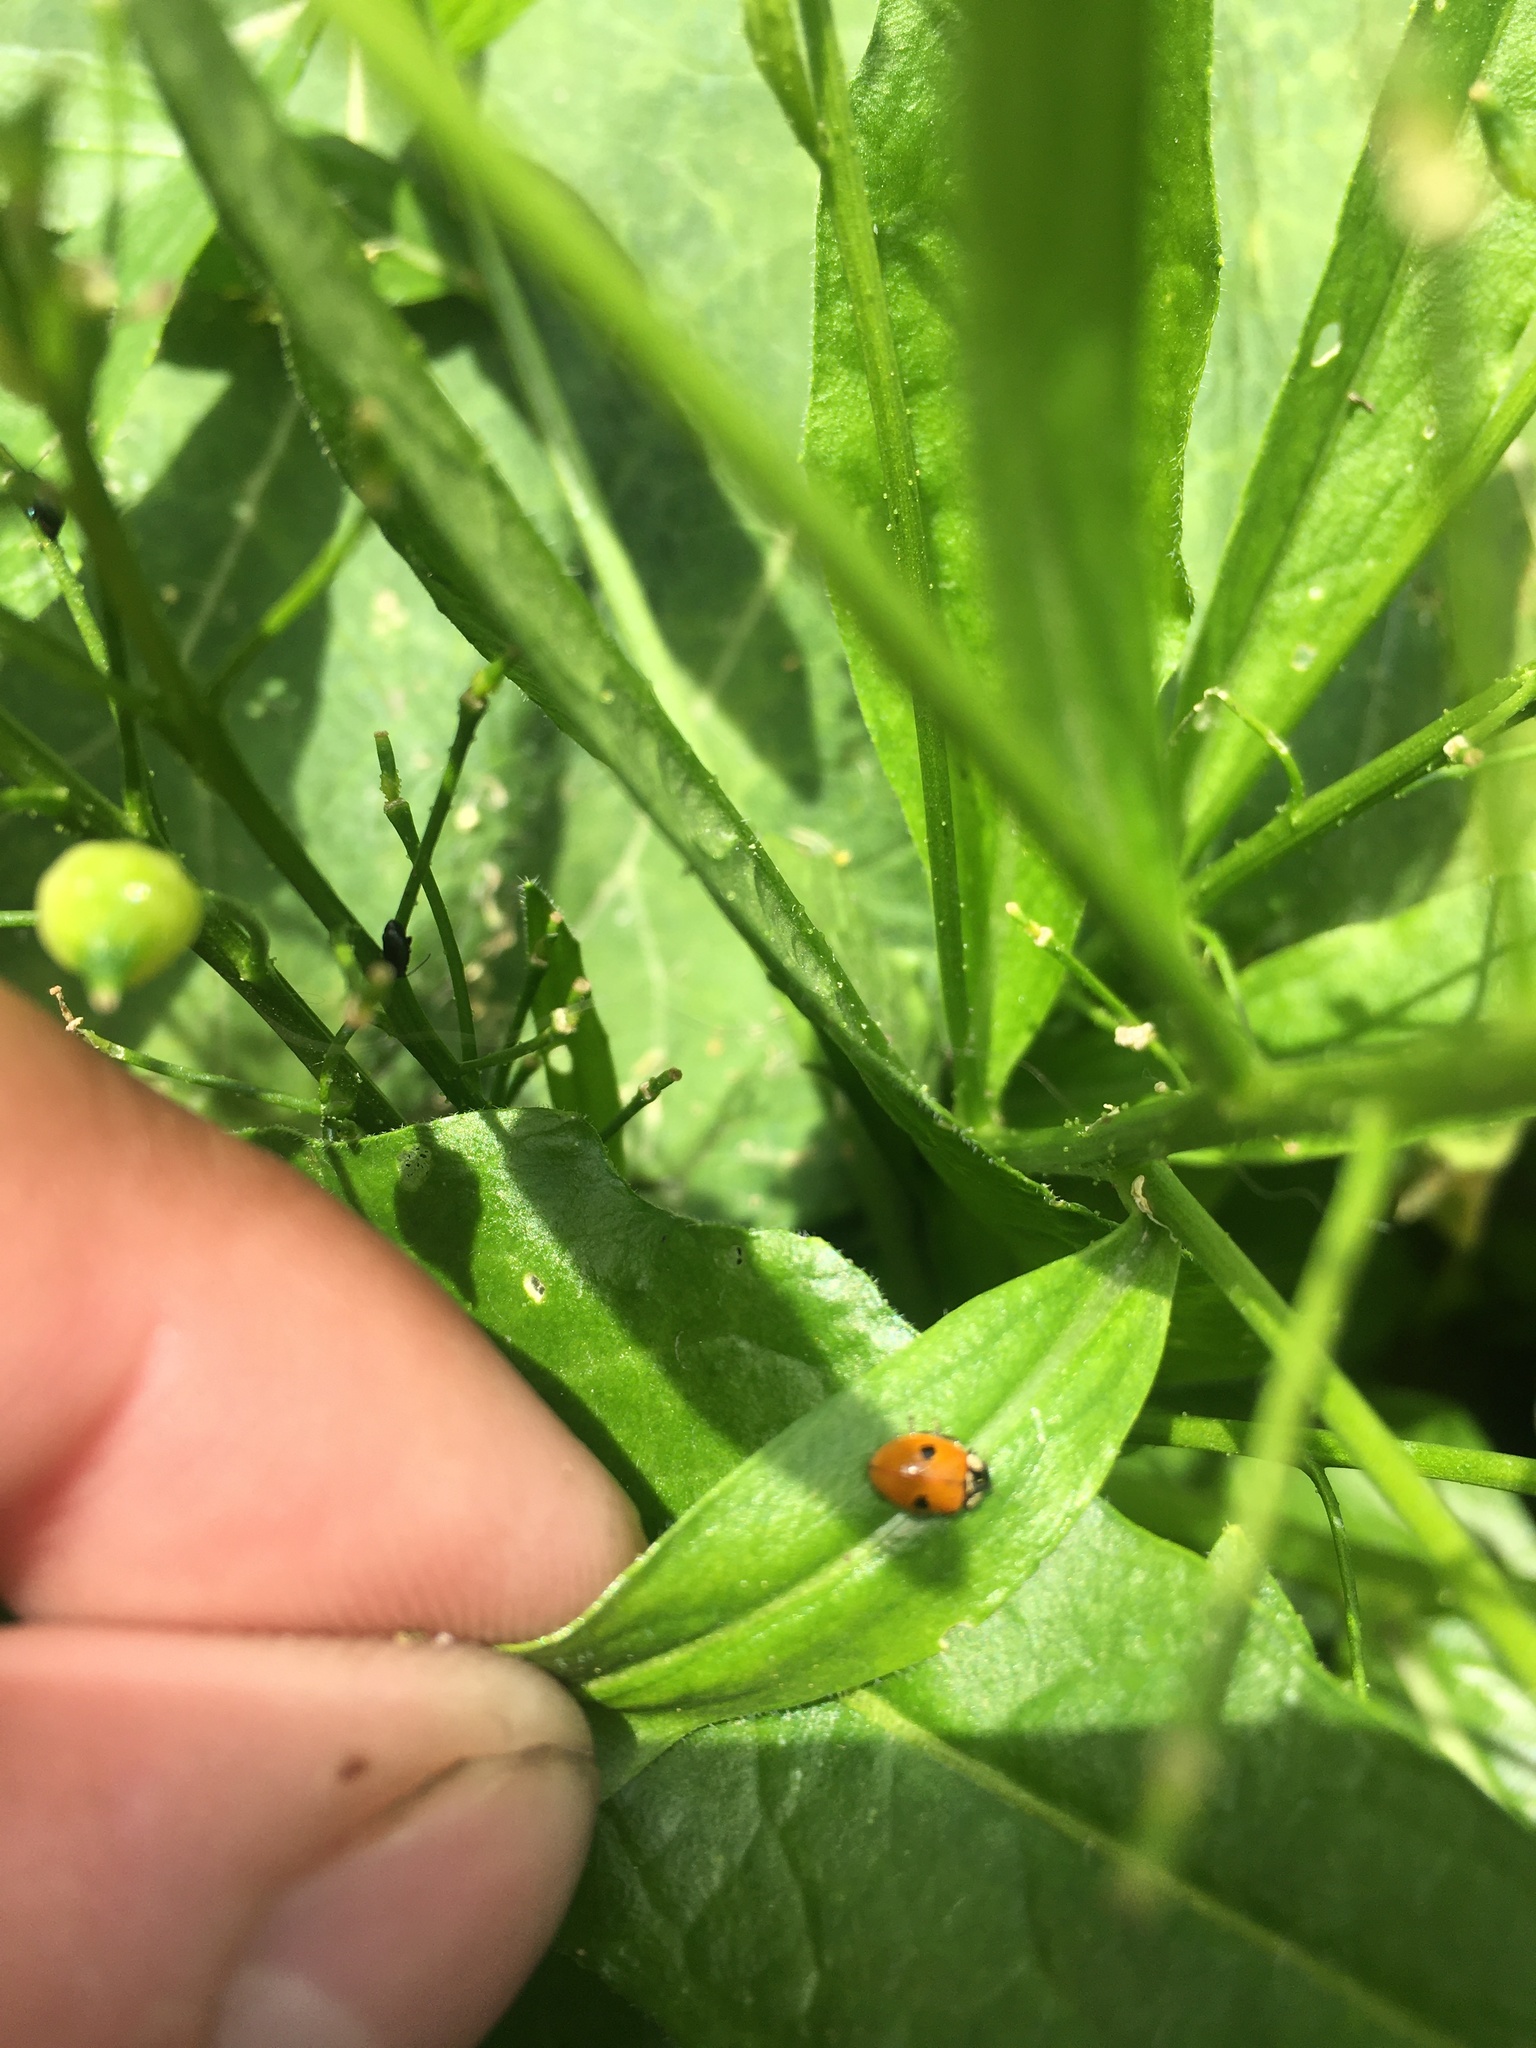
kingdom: Animalia
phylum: Arthropoda
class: Insecta
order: Coleoptera
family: Coccinellidae
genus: Adalia
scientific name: Adalia bipunctata
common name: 2-spot ladybird
